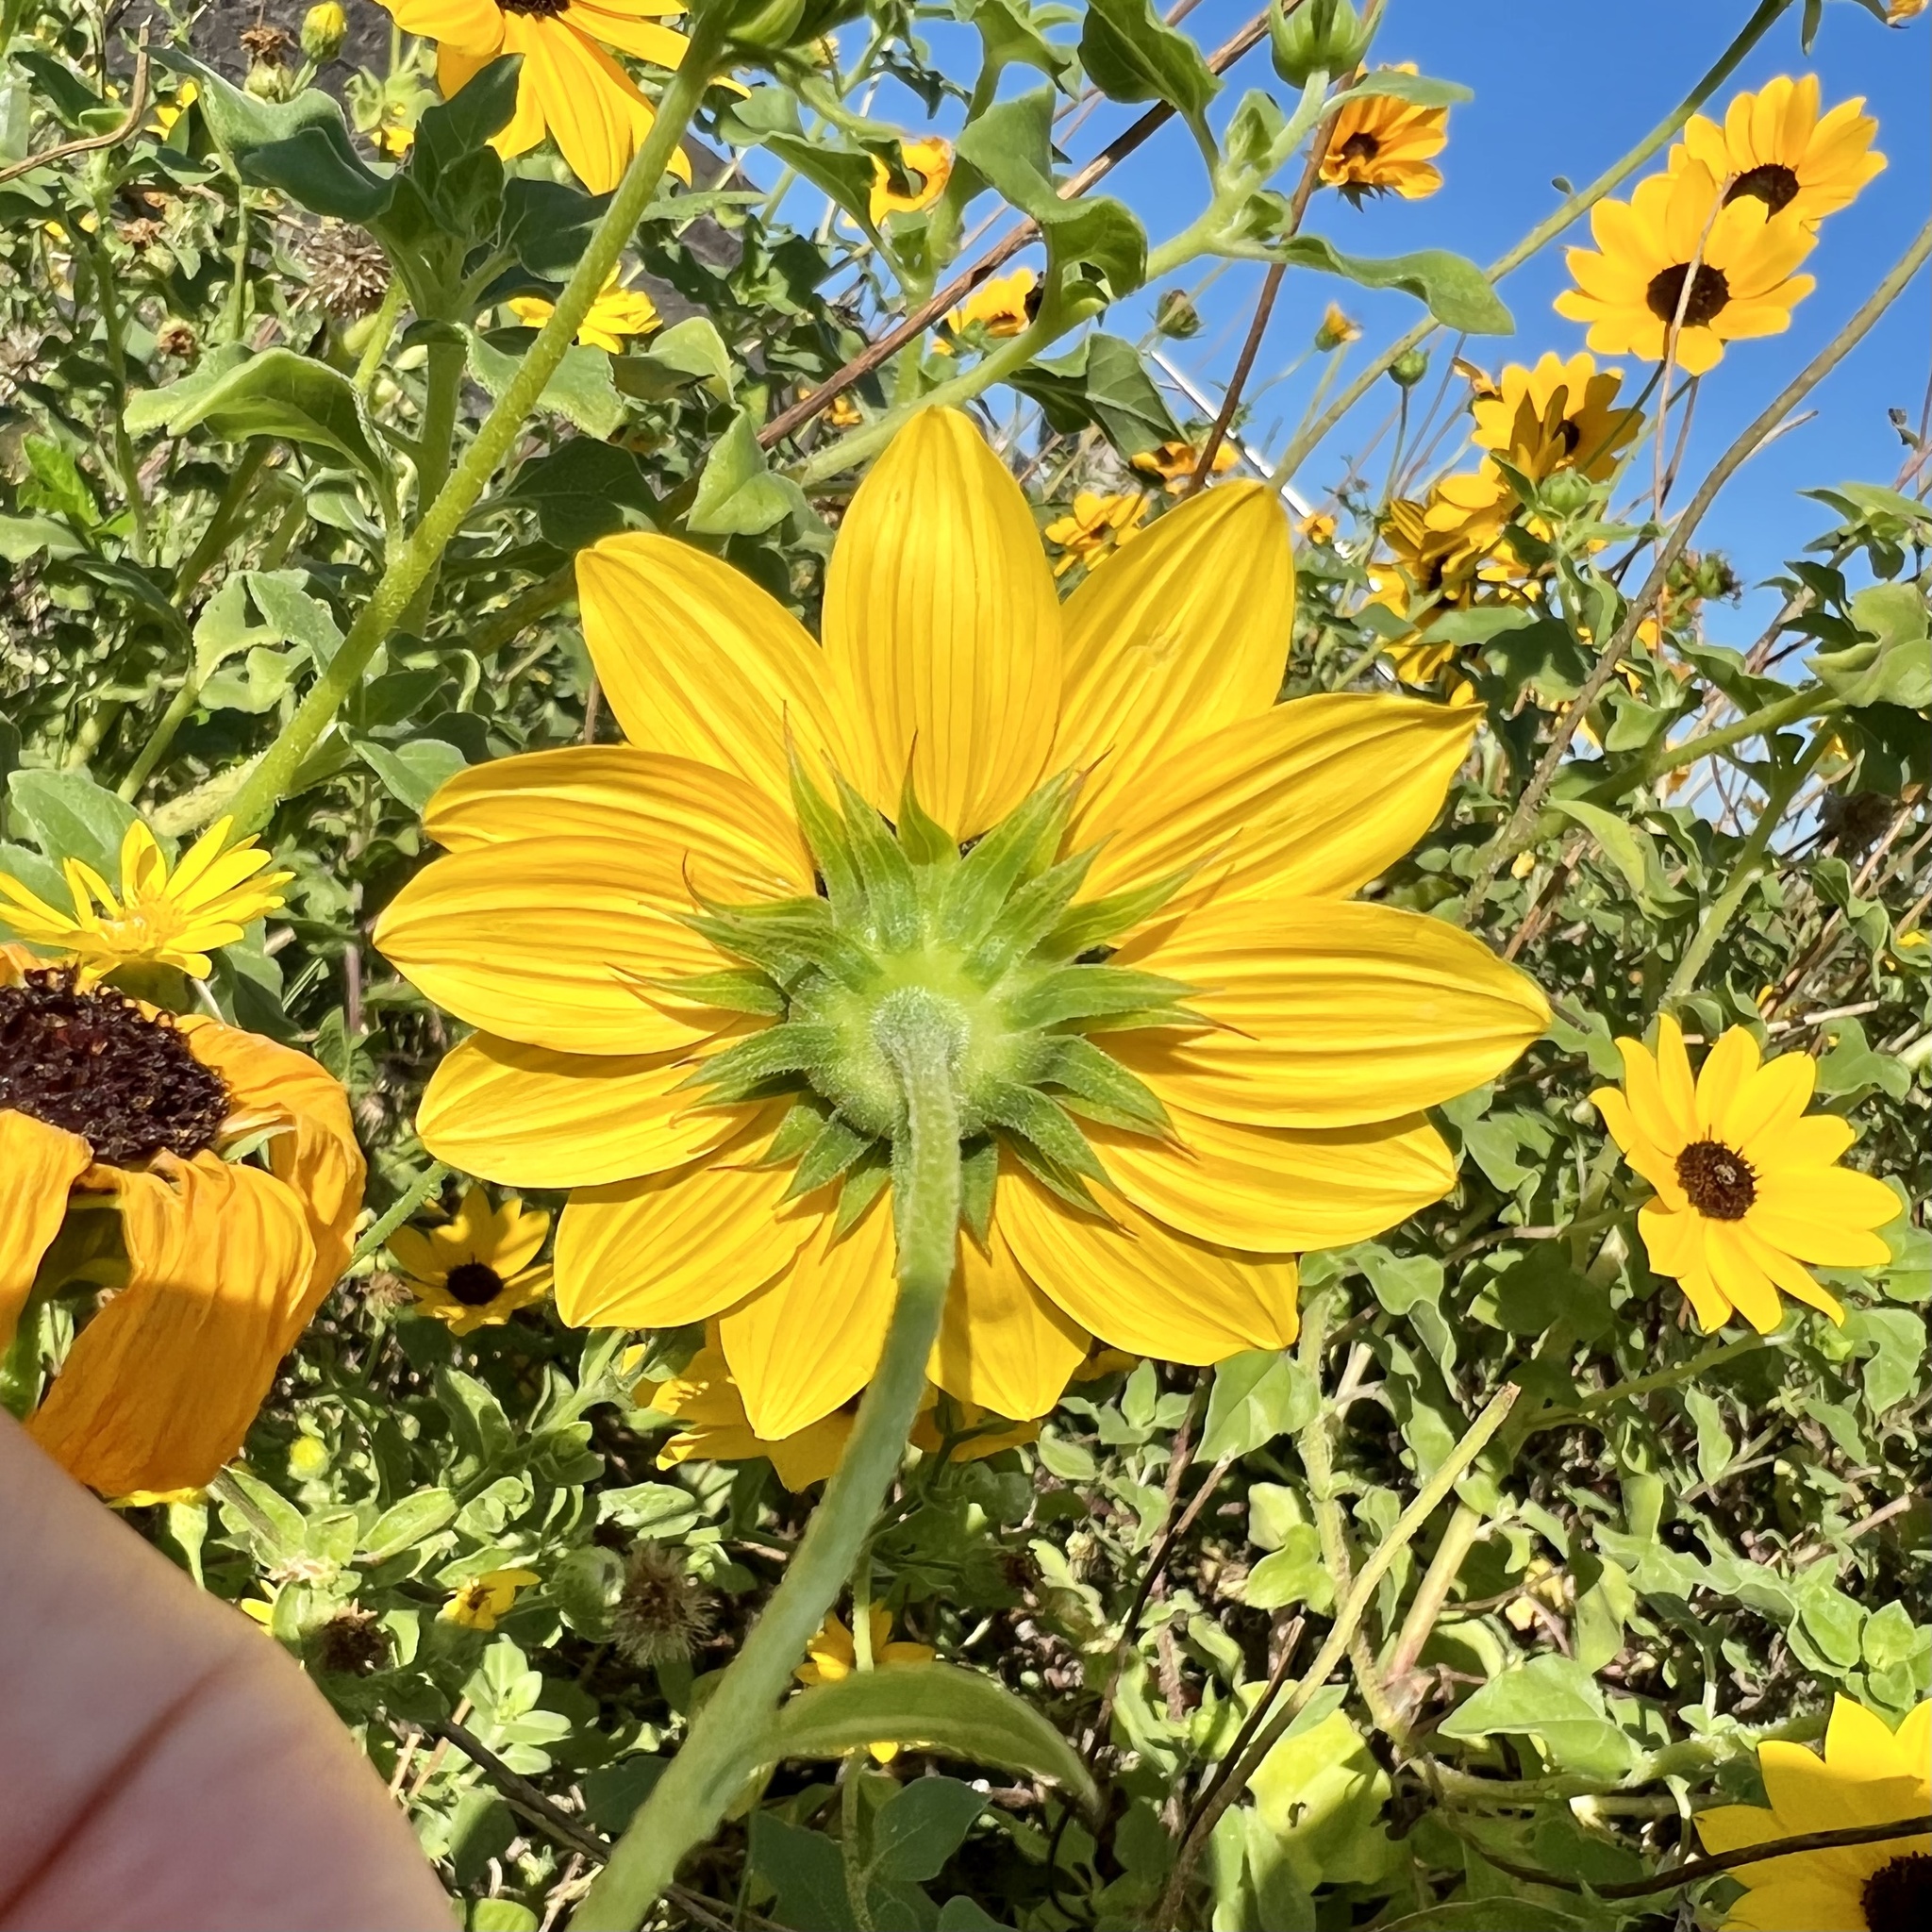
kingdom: Plantae
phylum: Tracheophyta
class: Magnoliopsida
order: Asterales
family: Asteraceae
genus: Helianthus
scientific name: Helianthus debilis
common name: Weak sunflower
